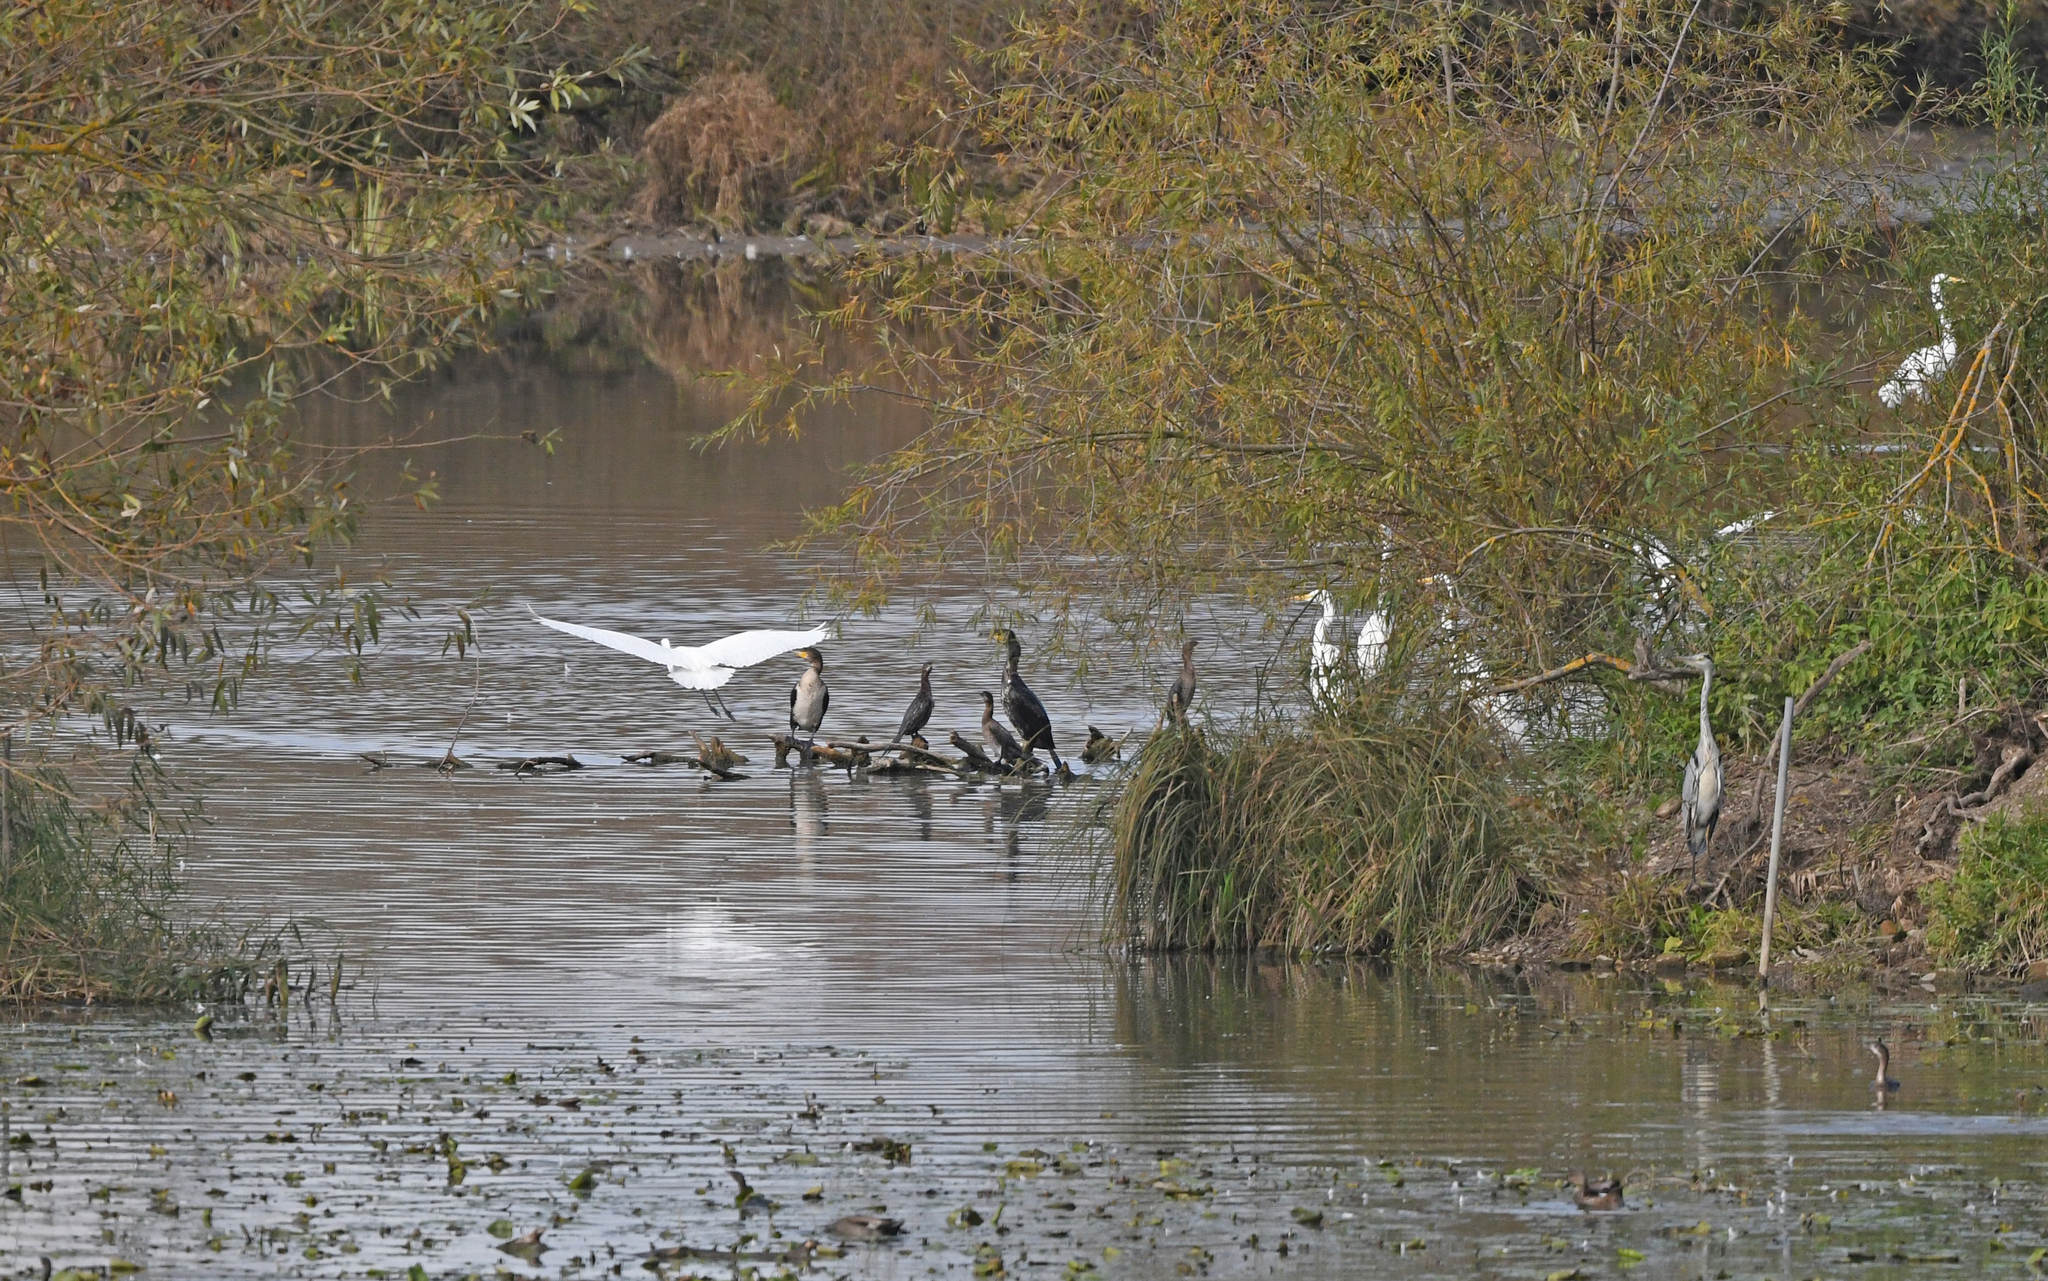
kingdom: Animalia
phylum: Chordata
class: Aves
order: Suliformes
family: Phalacrocoracidae
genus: Microcarbo
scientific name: Microcarbo pygmaeus
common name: Pygmy cormorant
